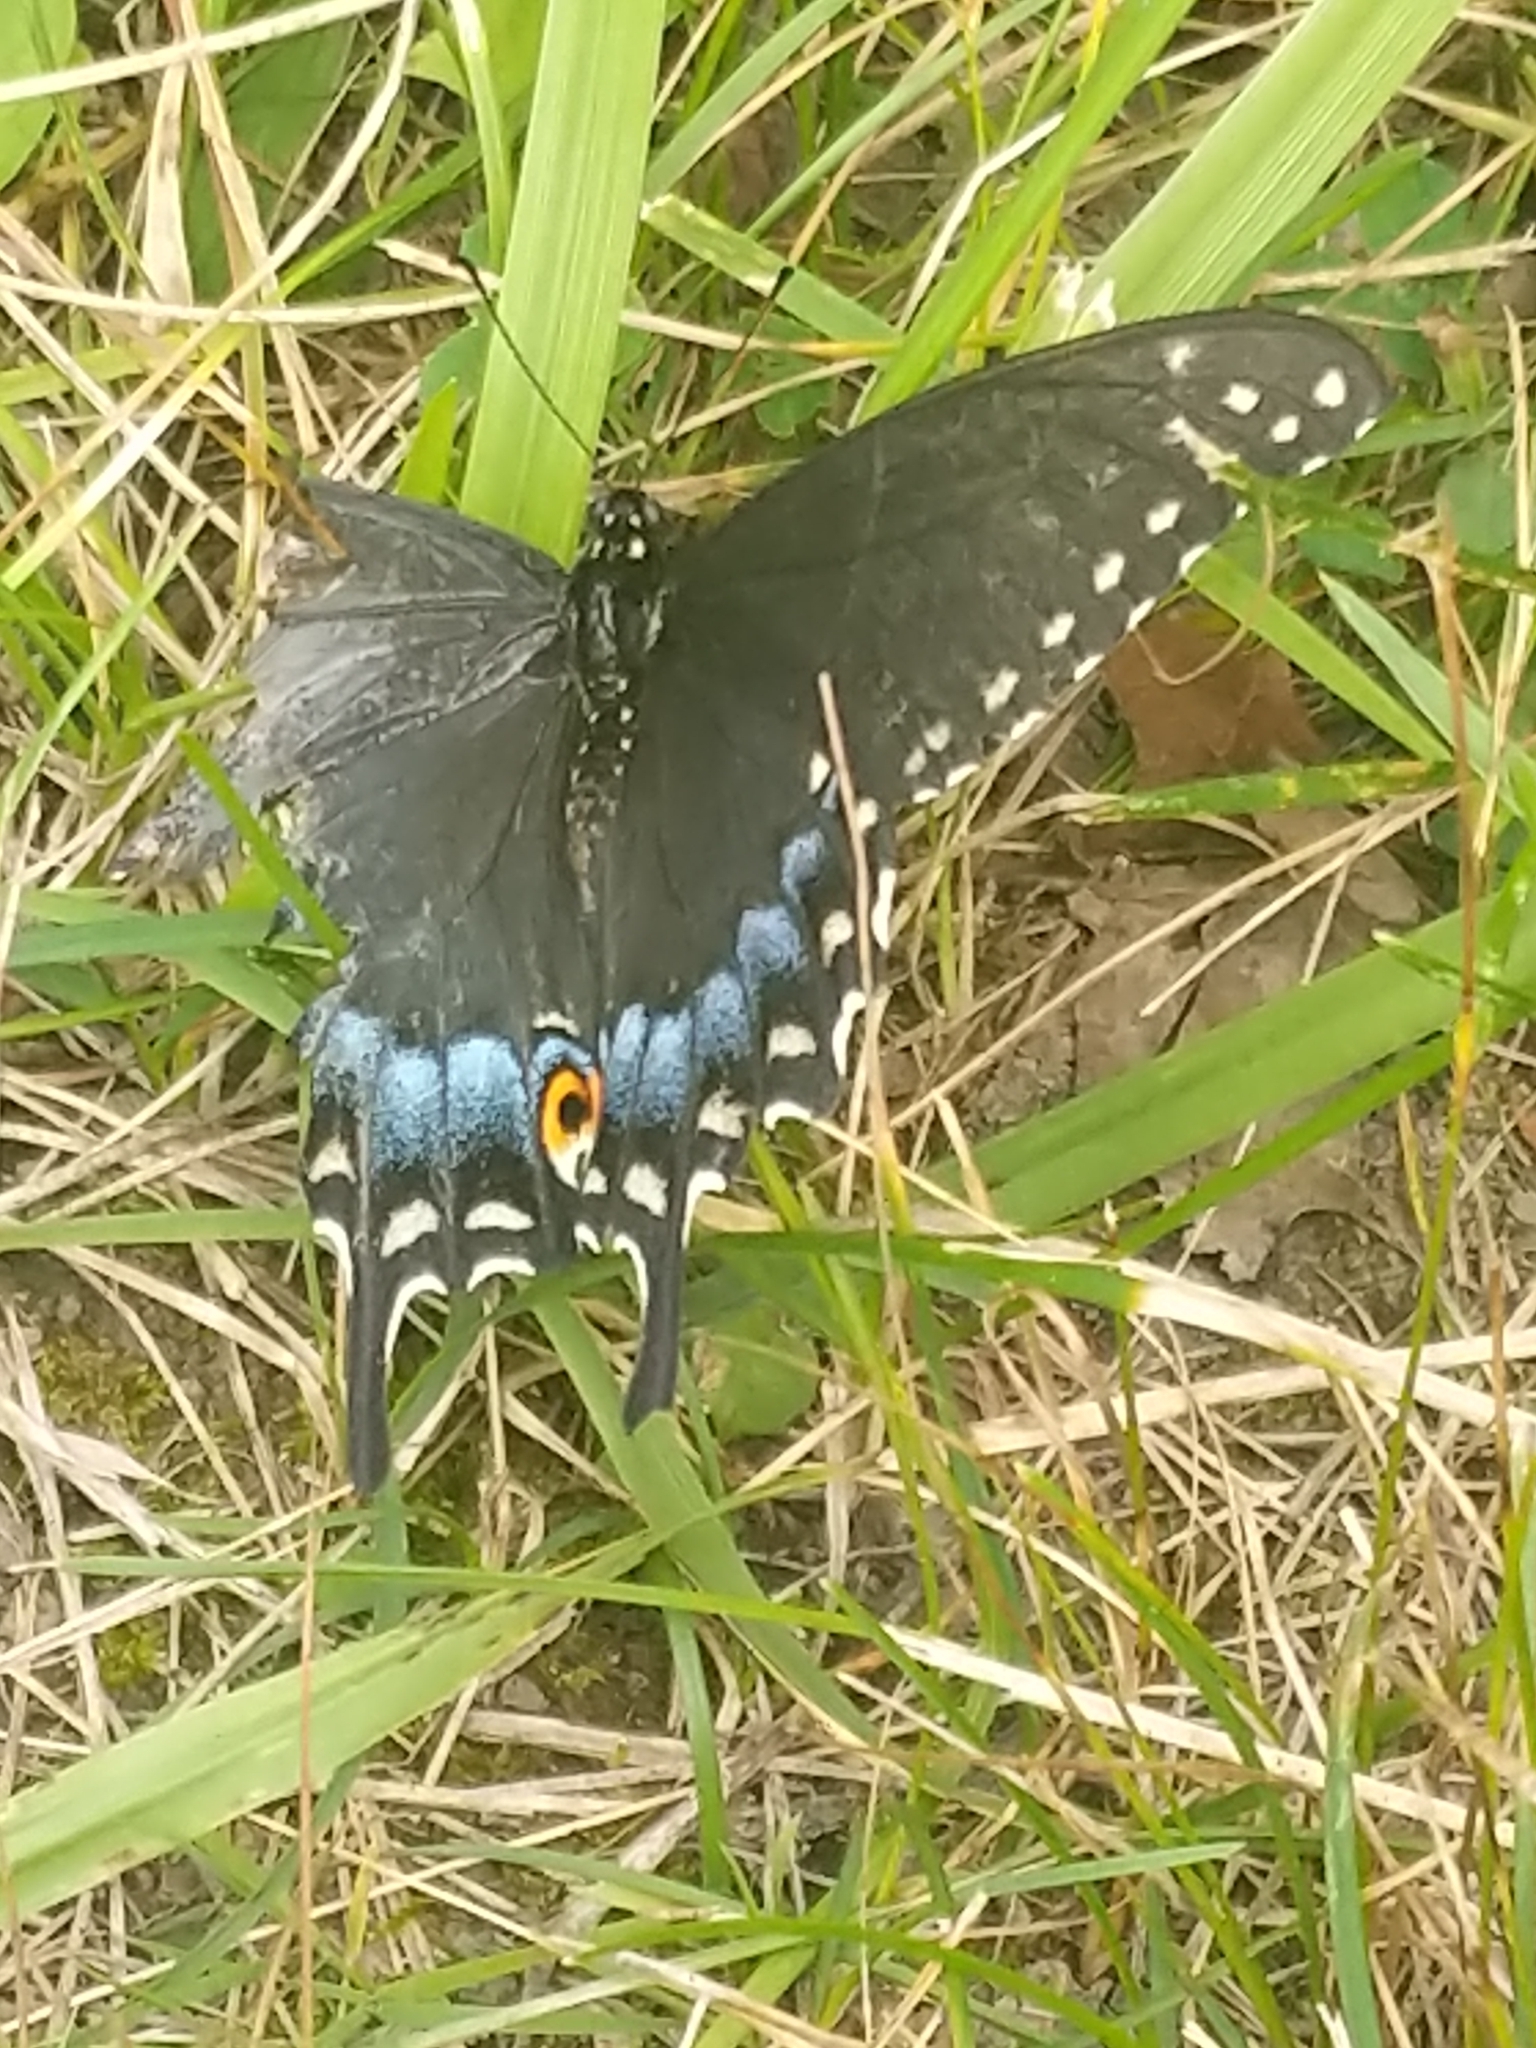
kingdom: Animalia
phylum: Arthropoda
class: Insecta
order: Lepidoptera
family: Papilionidae
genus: Papilio
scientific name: Papilio polyxenes
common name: Black swallowtail
